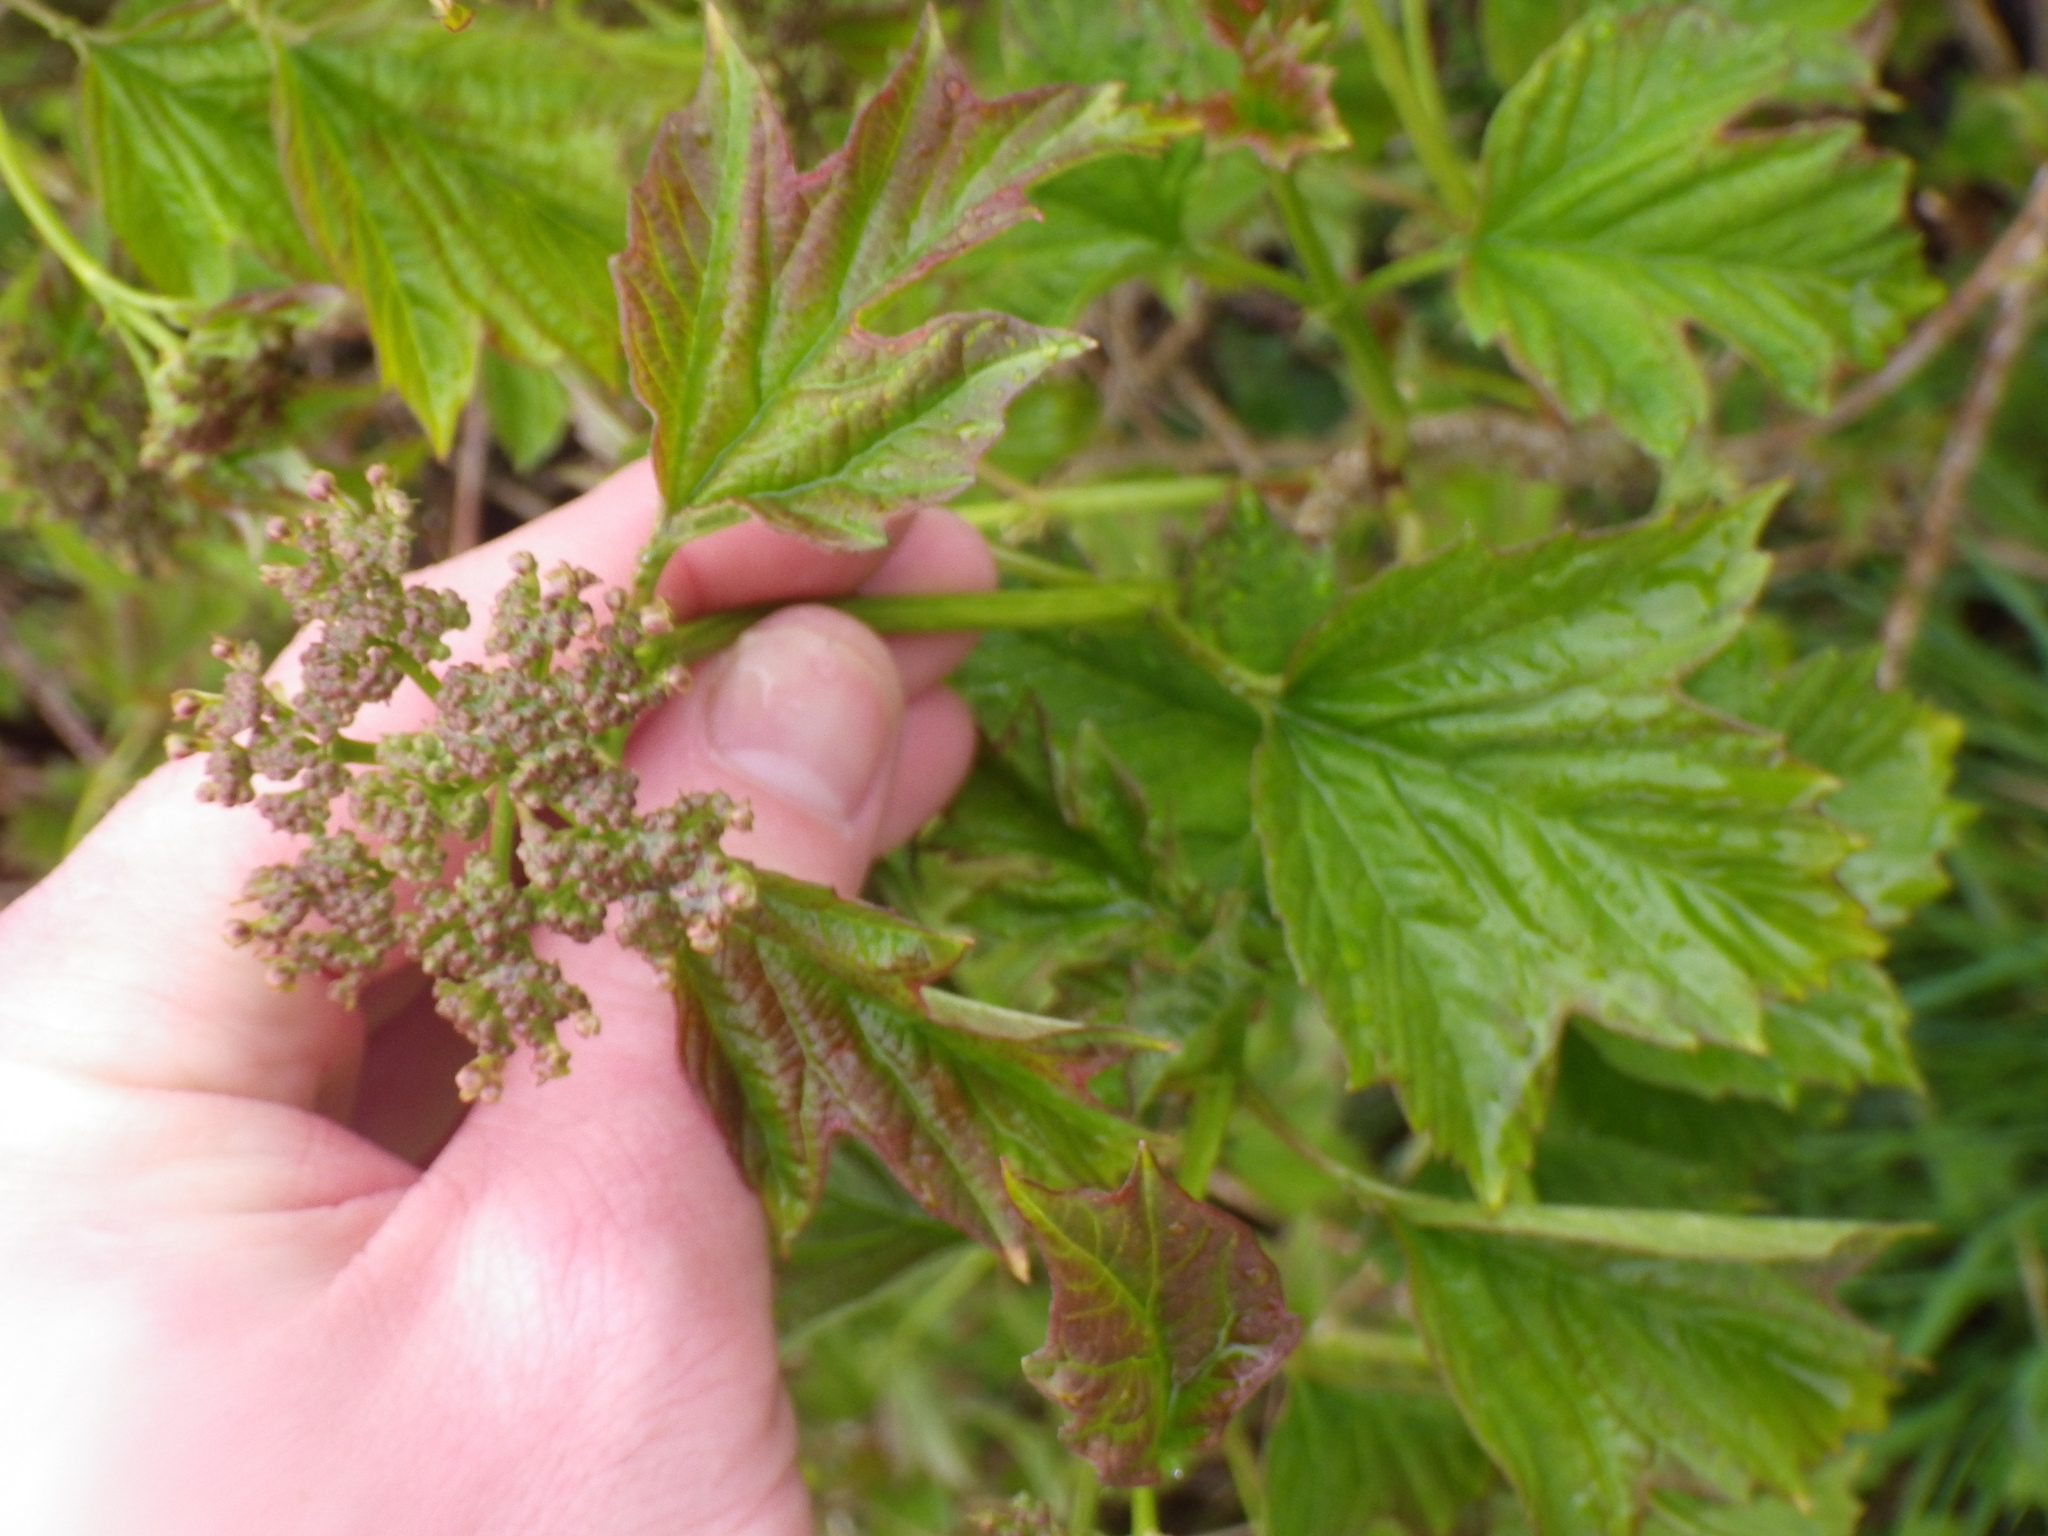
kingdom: Plantae
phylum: Tracheophyta
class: Magnoliopsida
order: Dipsacales
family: Viburnaceae
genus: Viburnum
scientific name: Viburnum opulus
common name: Guelder-rose
